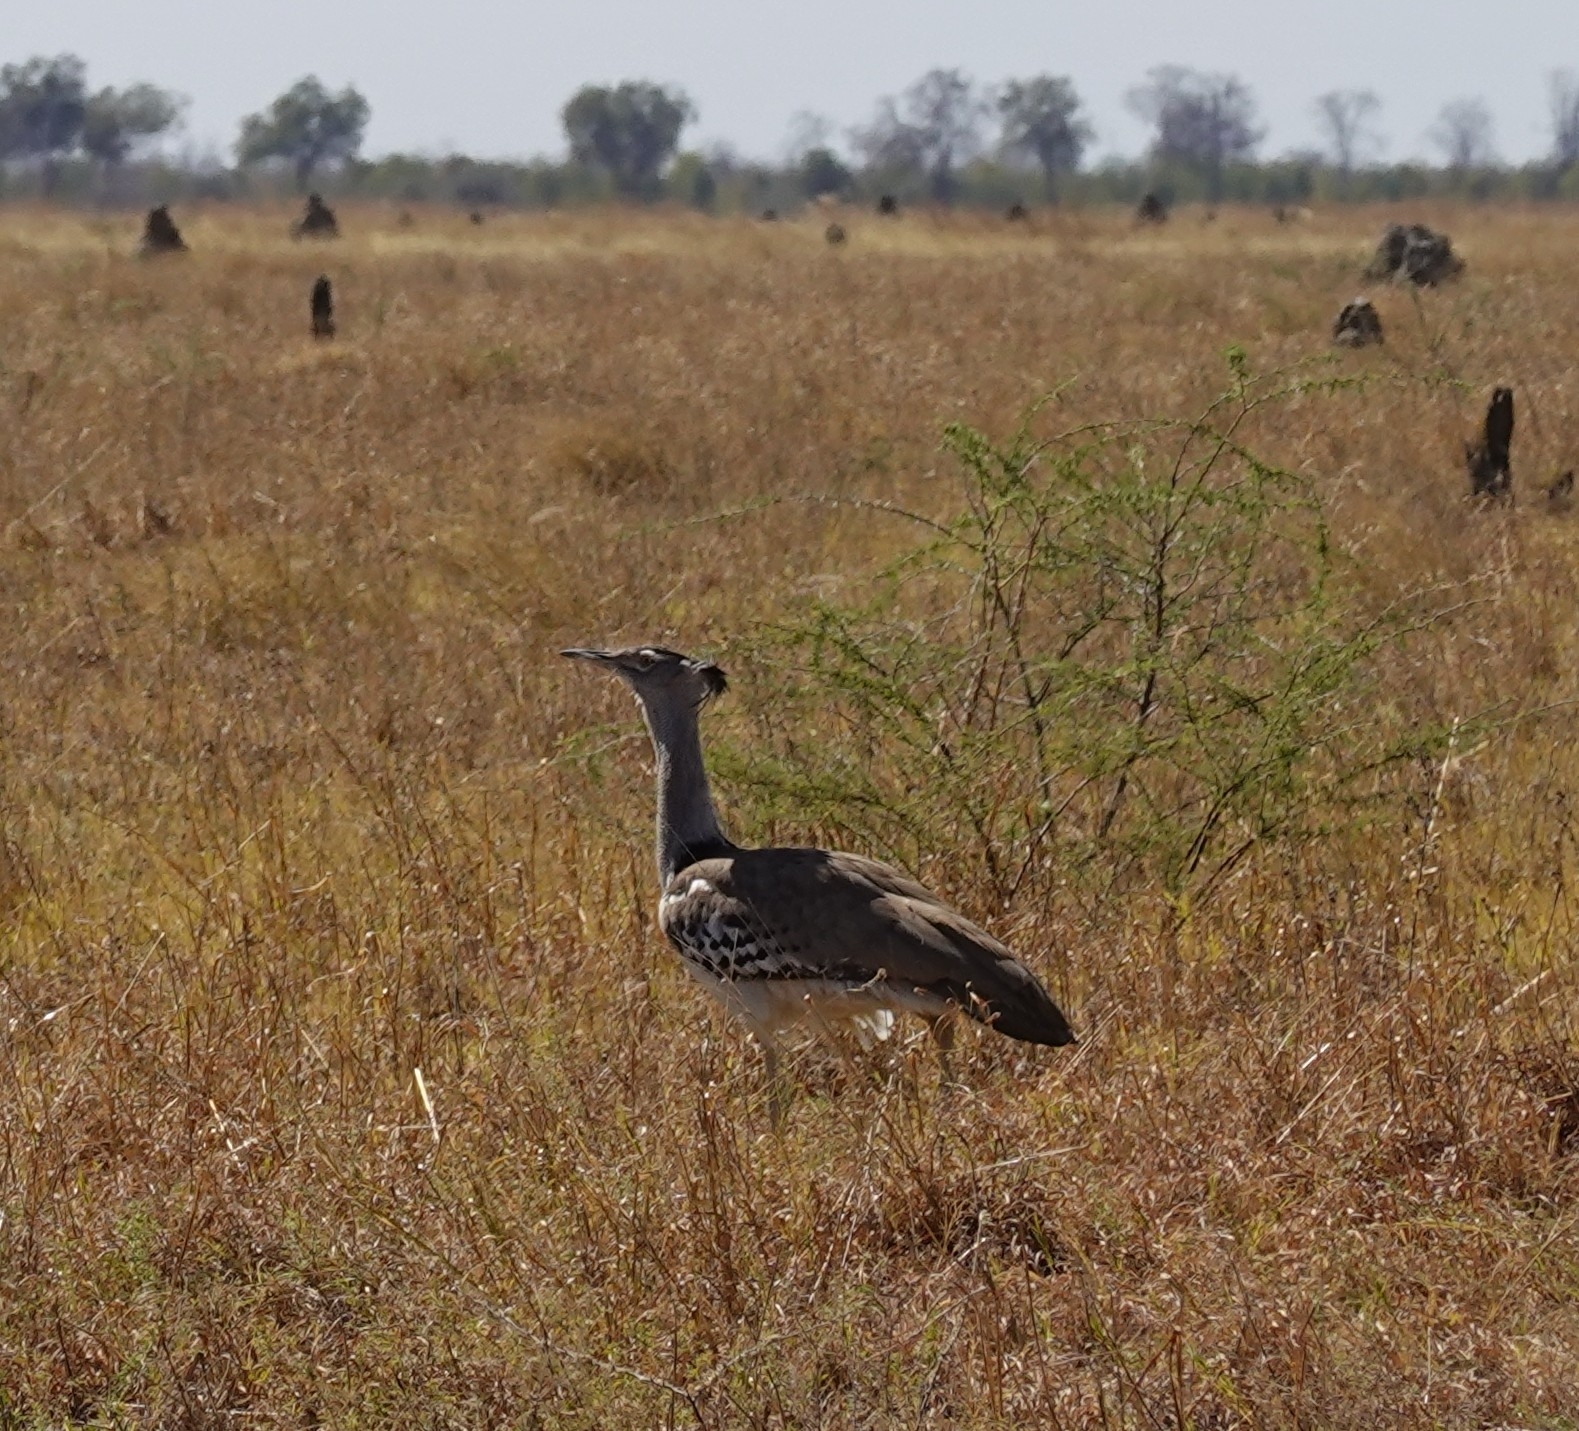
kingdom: Animalia
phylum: Chordata
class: Aves
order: Otidiformes
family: Otididae
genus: Ardeotis
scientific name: Ardeotis kori
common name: Kori bustard
